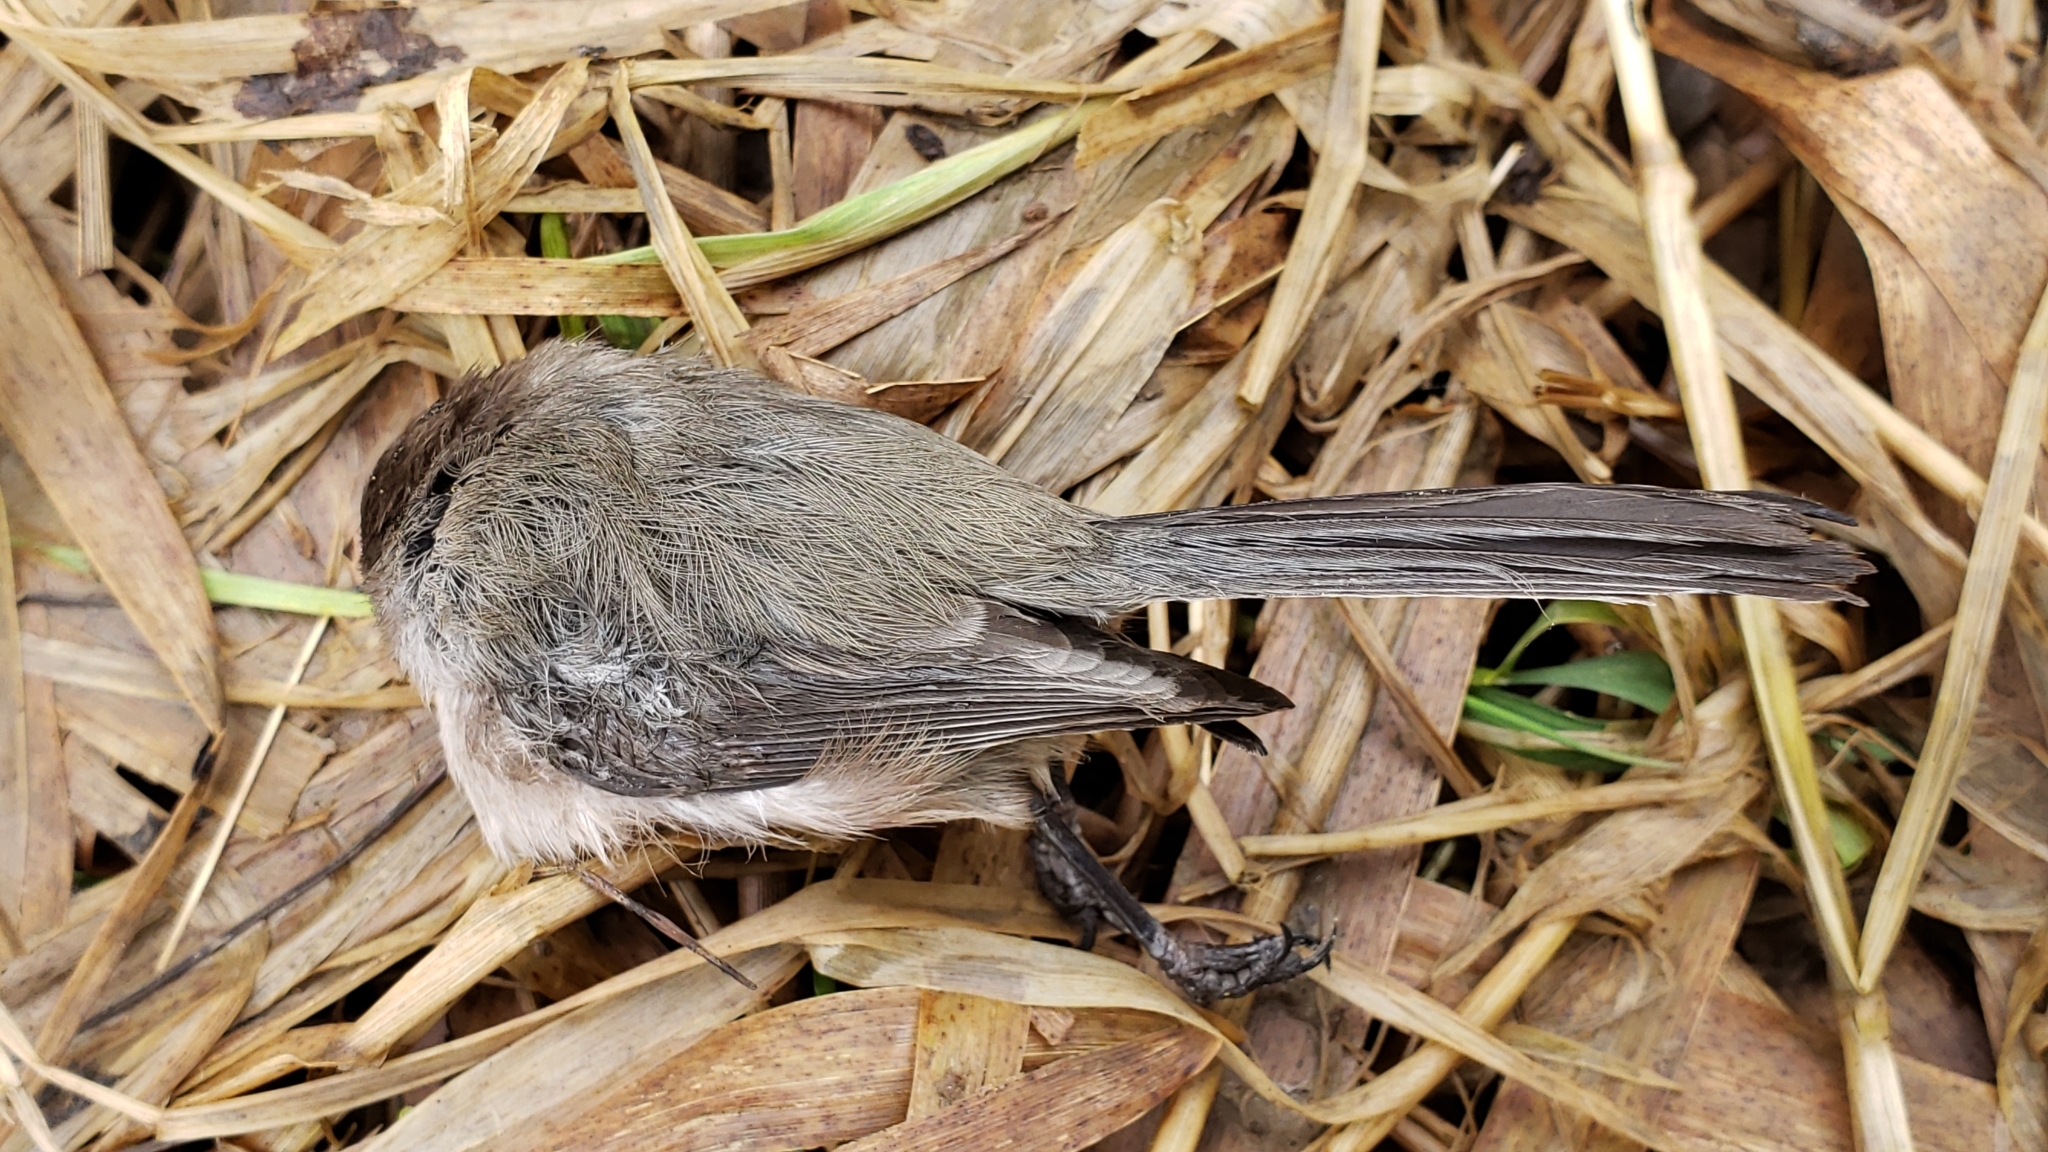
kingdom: Animalia
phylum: Chordata
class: Aves
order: Passeriformes
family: Aegithalidae
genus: Psaltriparus
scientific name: Psaltriparus minimus
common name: American bushtit
